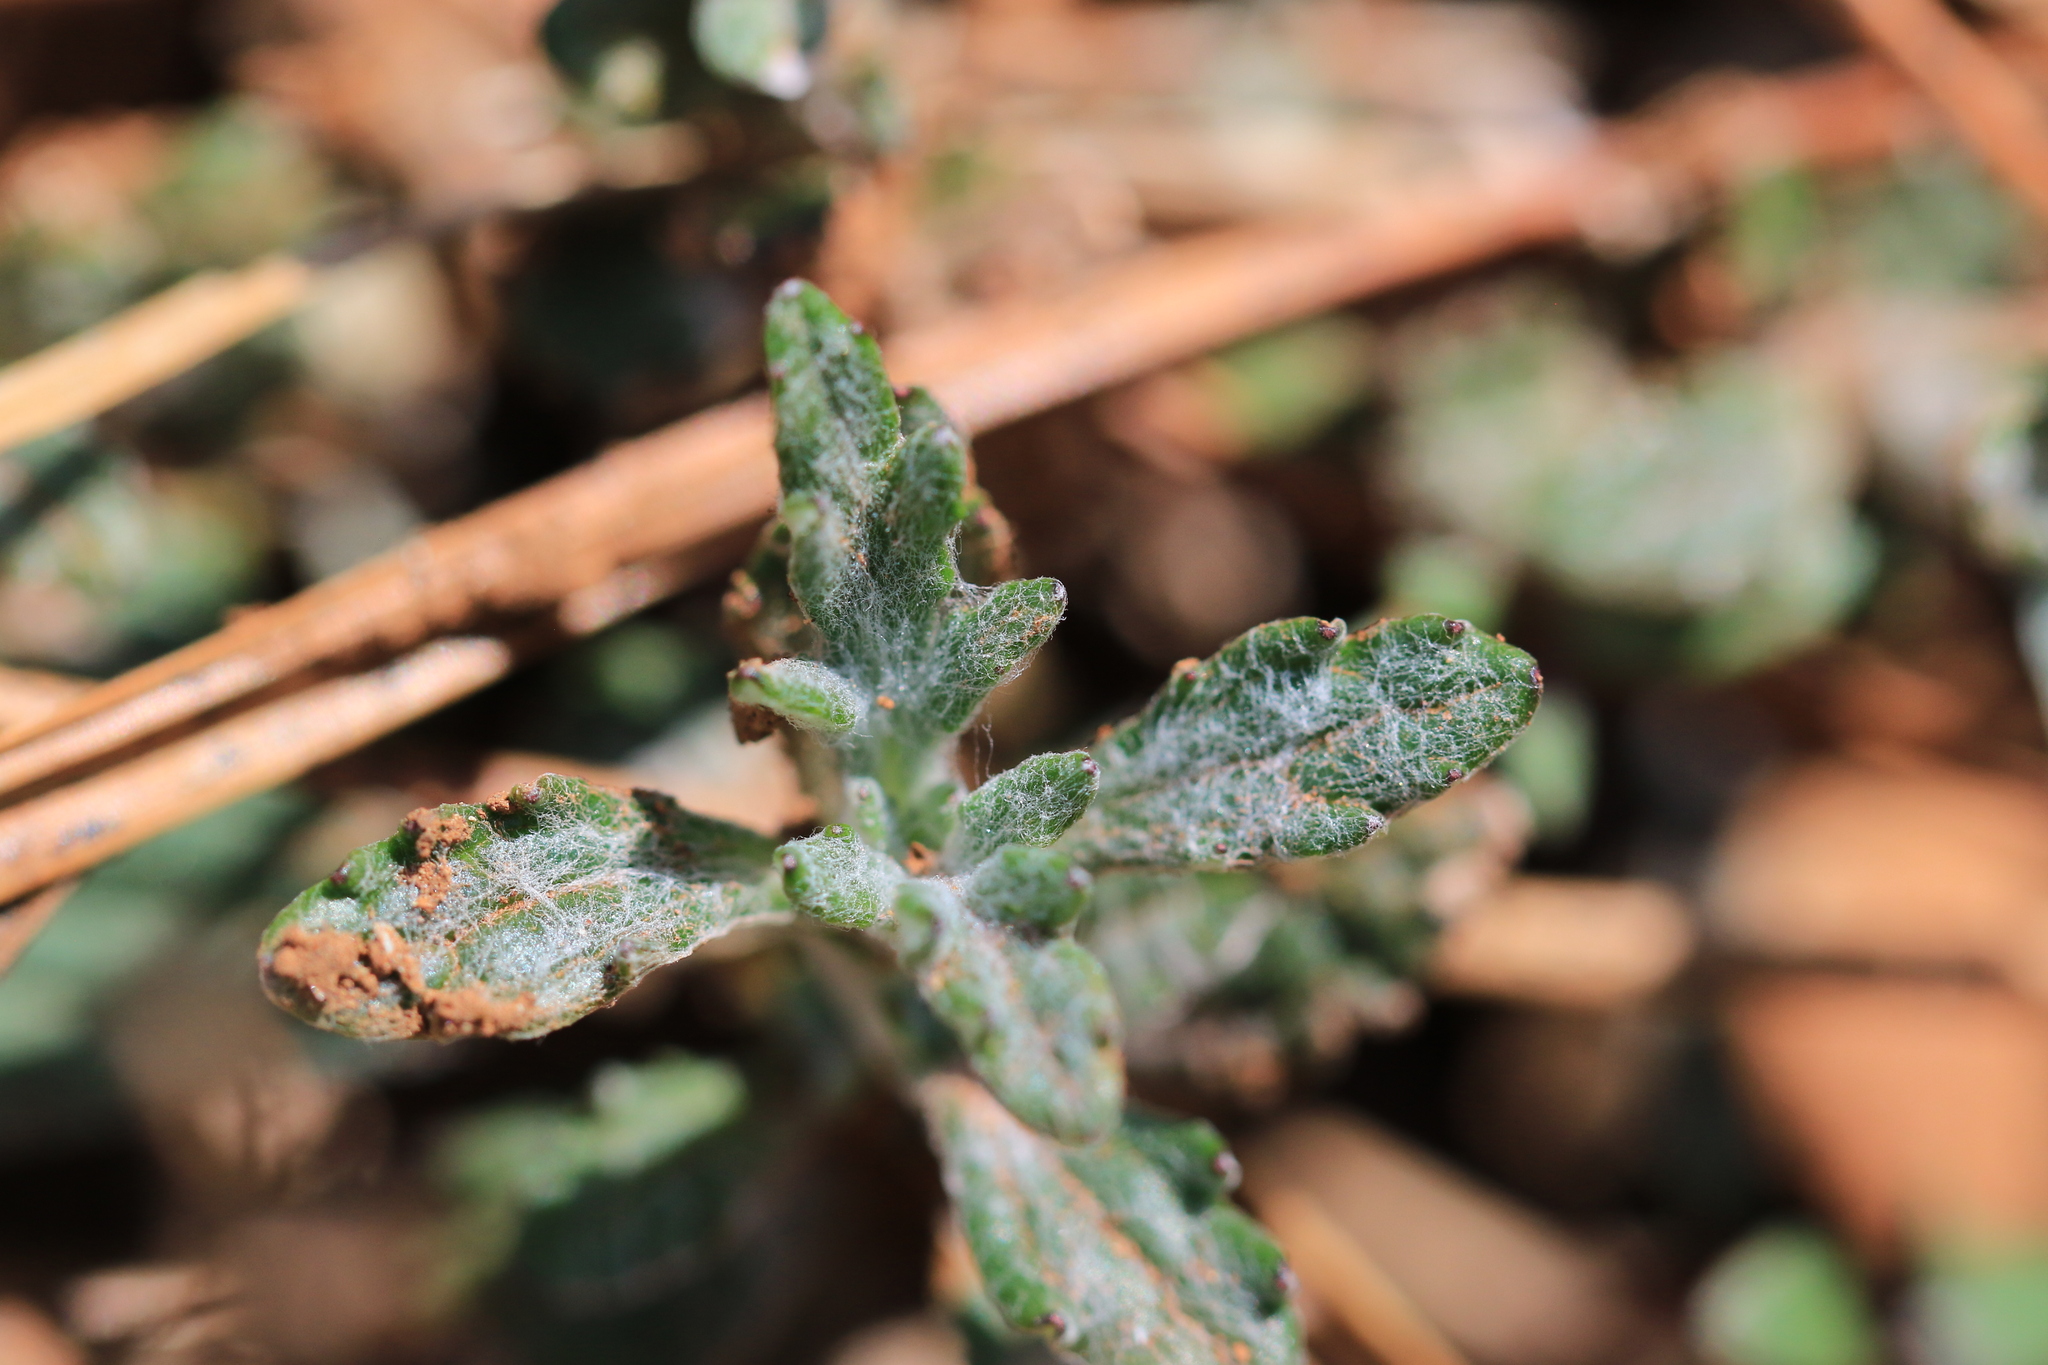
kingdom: Plantae
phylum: Tracheophyta
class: Magnoliopsida
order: Asterales
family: Asteraceae
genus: Eriophyllum
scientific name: Eriophyllum lanatum
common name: Common woolly-sunflower
